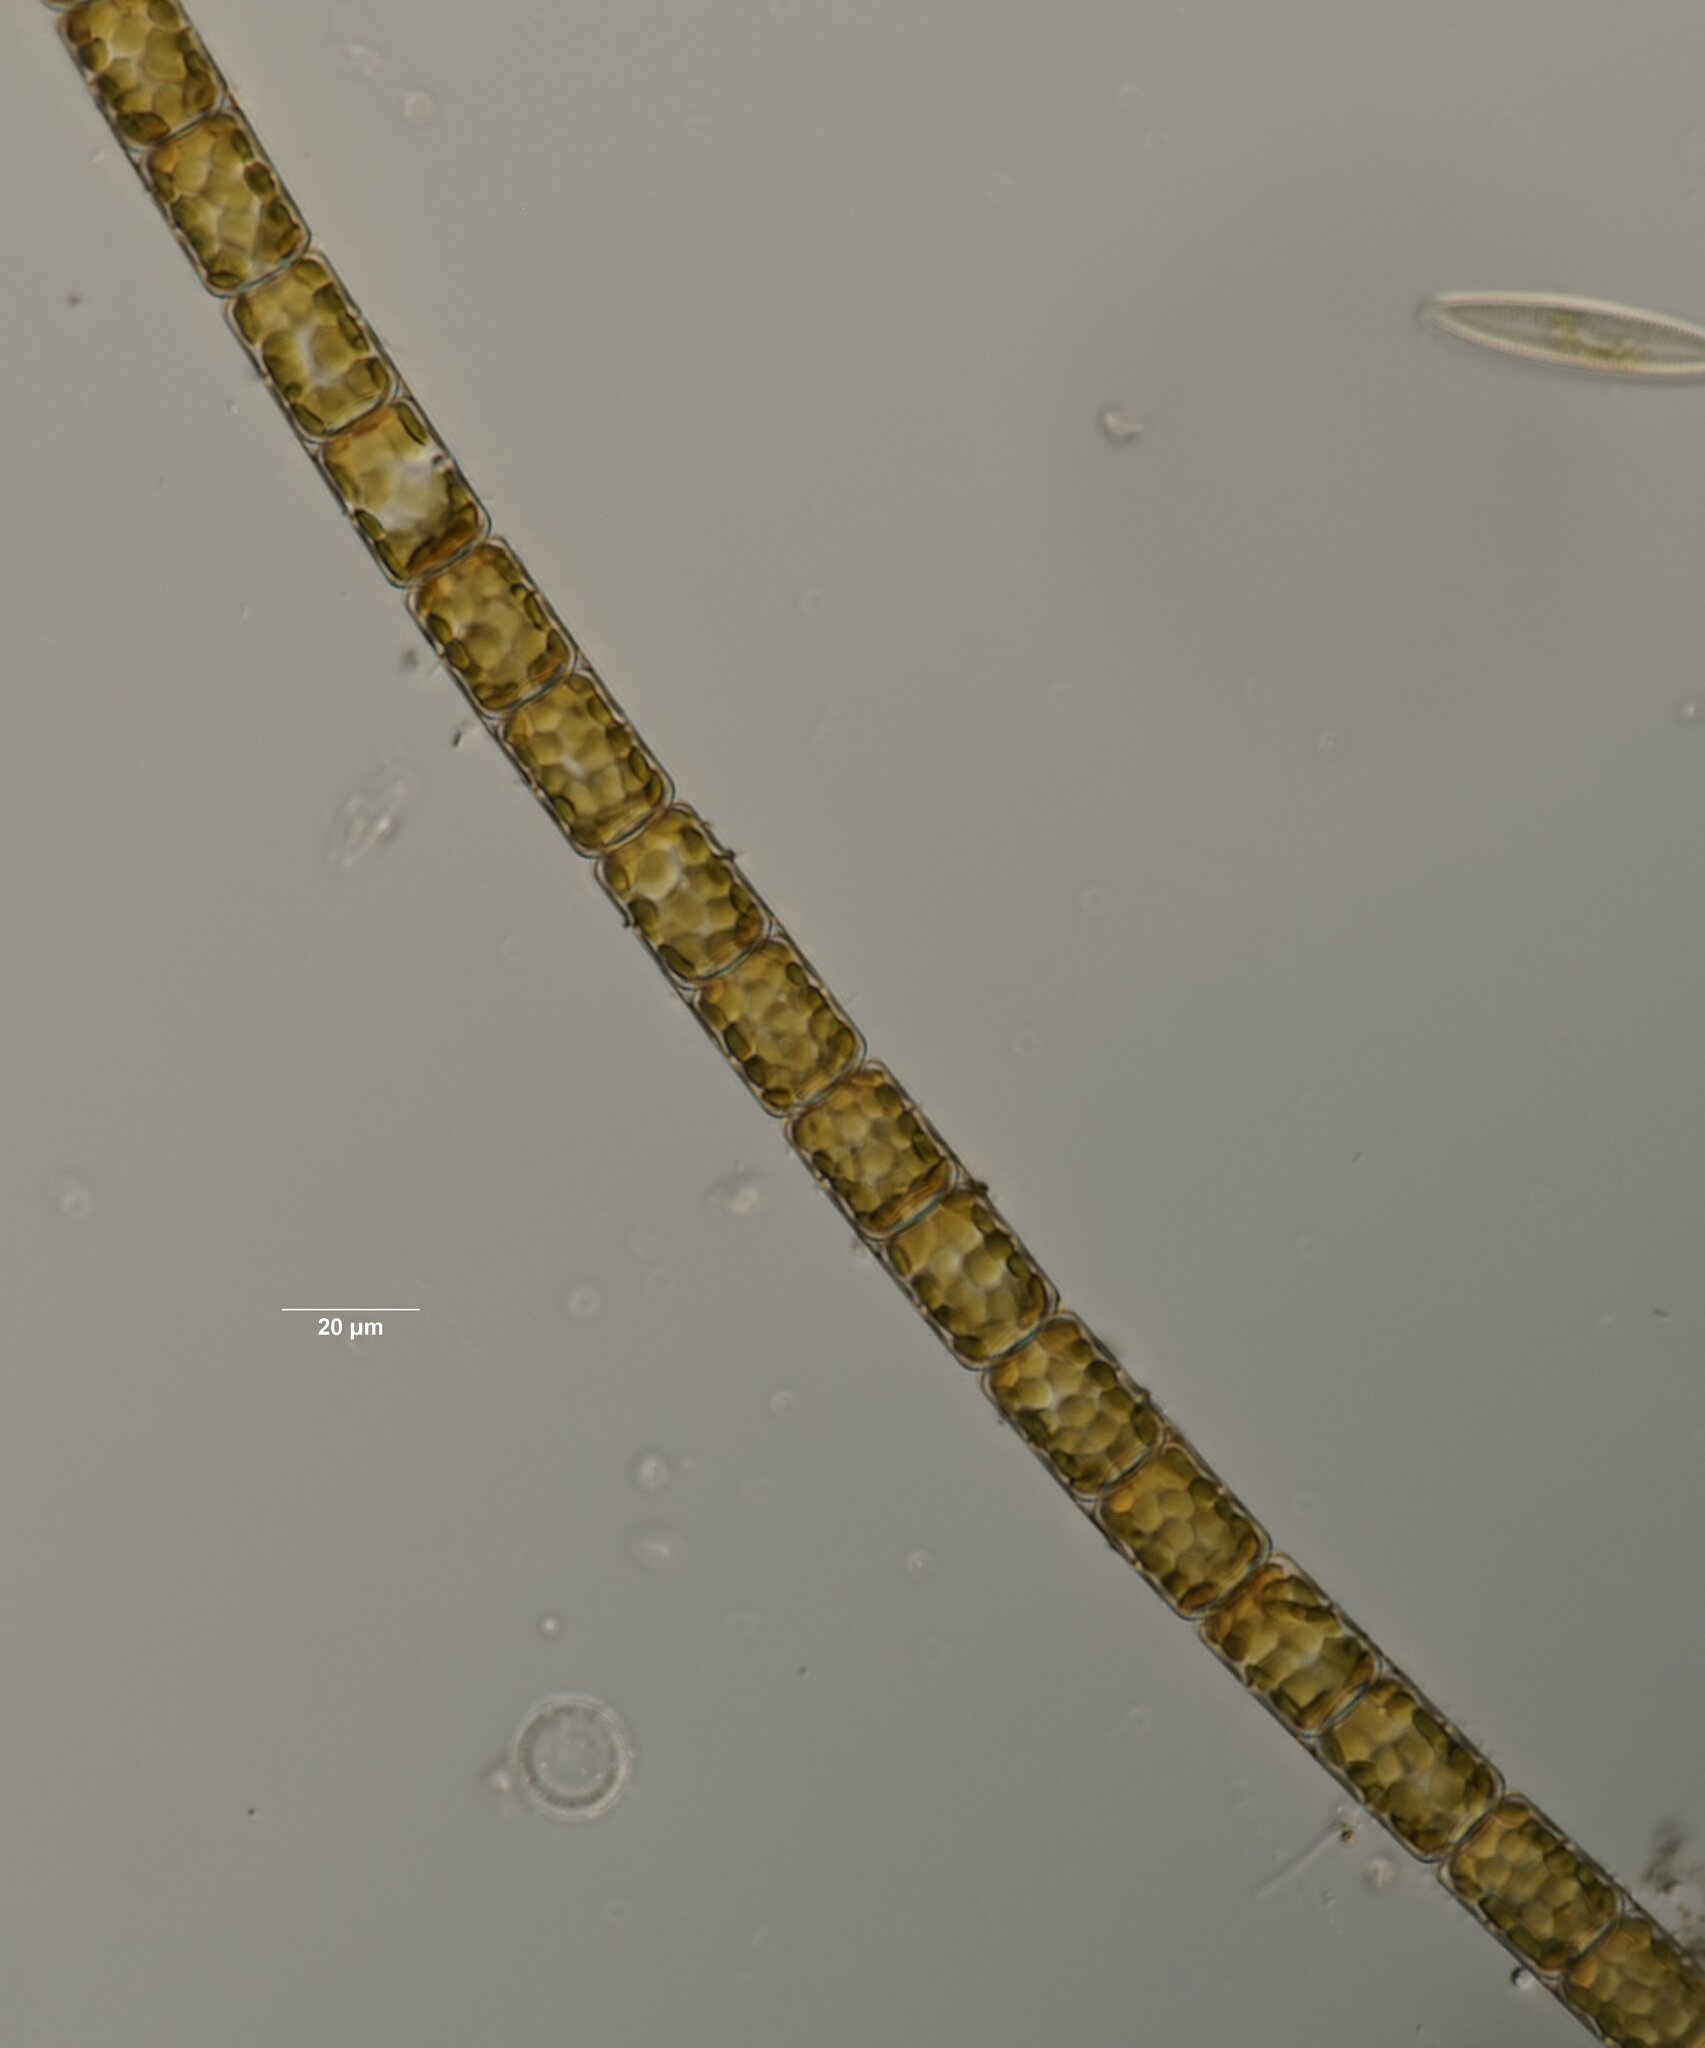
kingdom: Chromista
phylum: Ochrophyta
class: Bacillariophyceae
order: Melosirales
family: Melosiraceae
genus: Melosira
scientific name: Melosira varians
